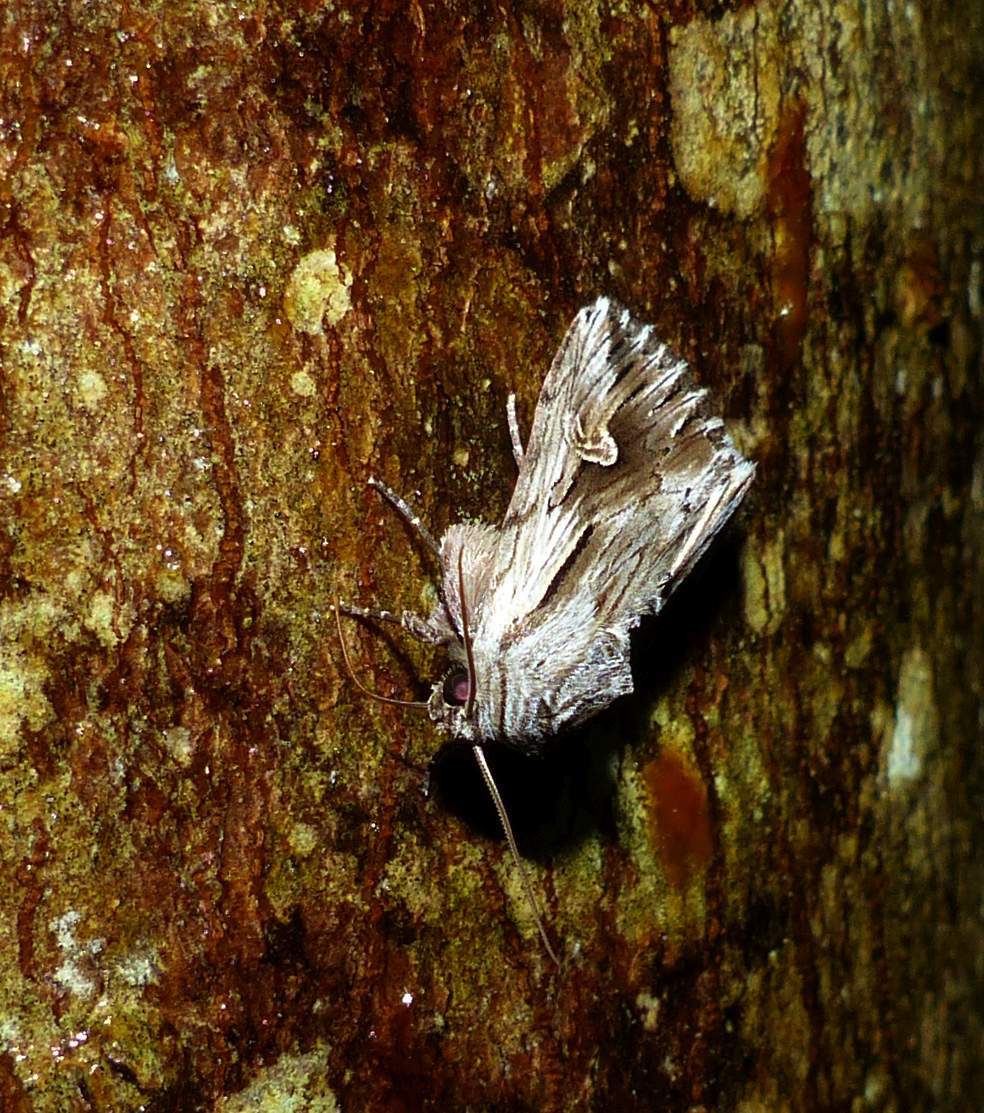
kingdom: Animalia
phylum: Arthropoda
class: Insecta
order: Lepidoptera
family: Noctuidae
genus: Nedra
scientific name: Nedra ramosula
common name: Gray half-spot
